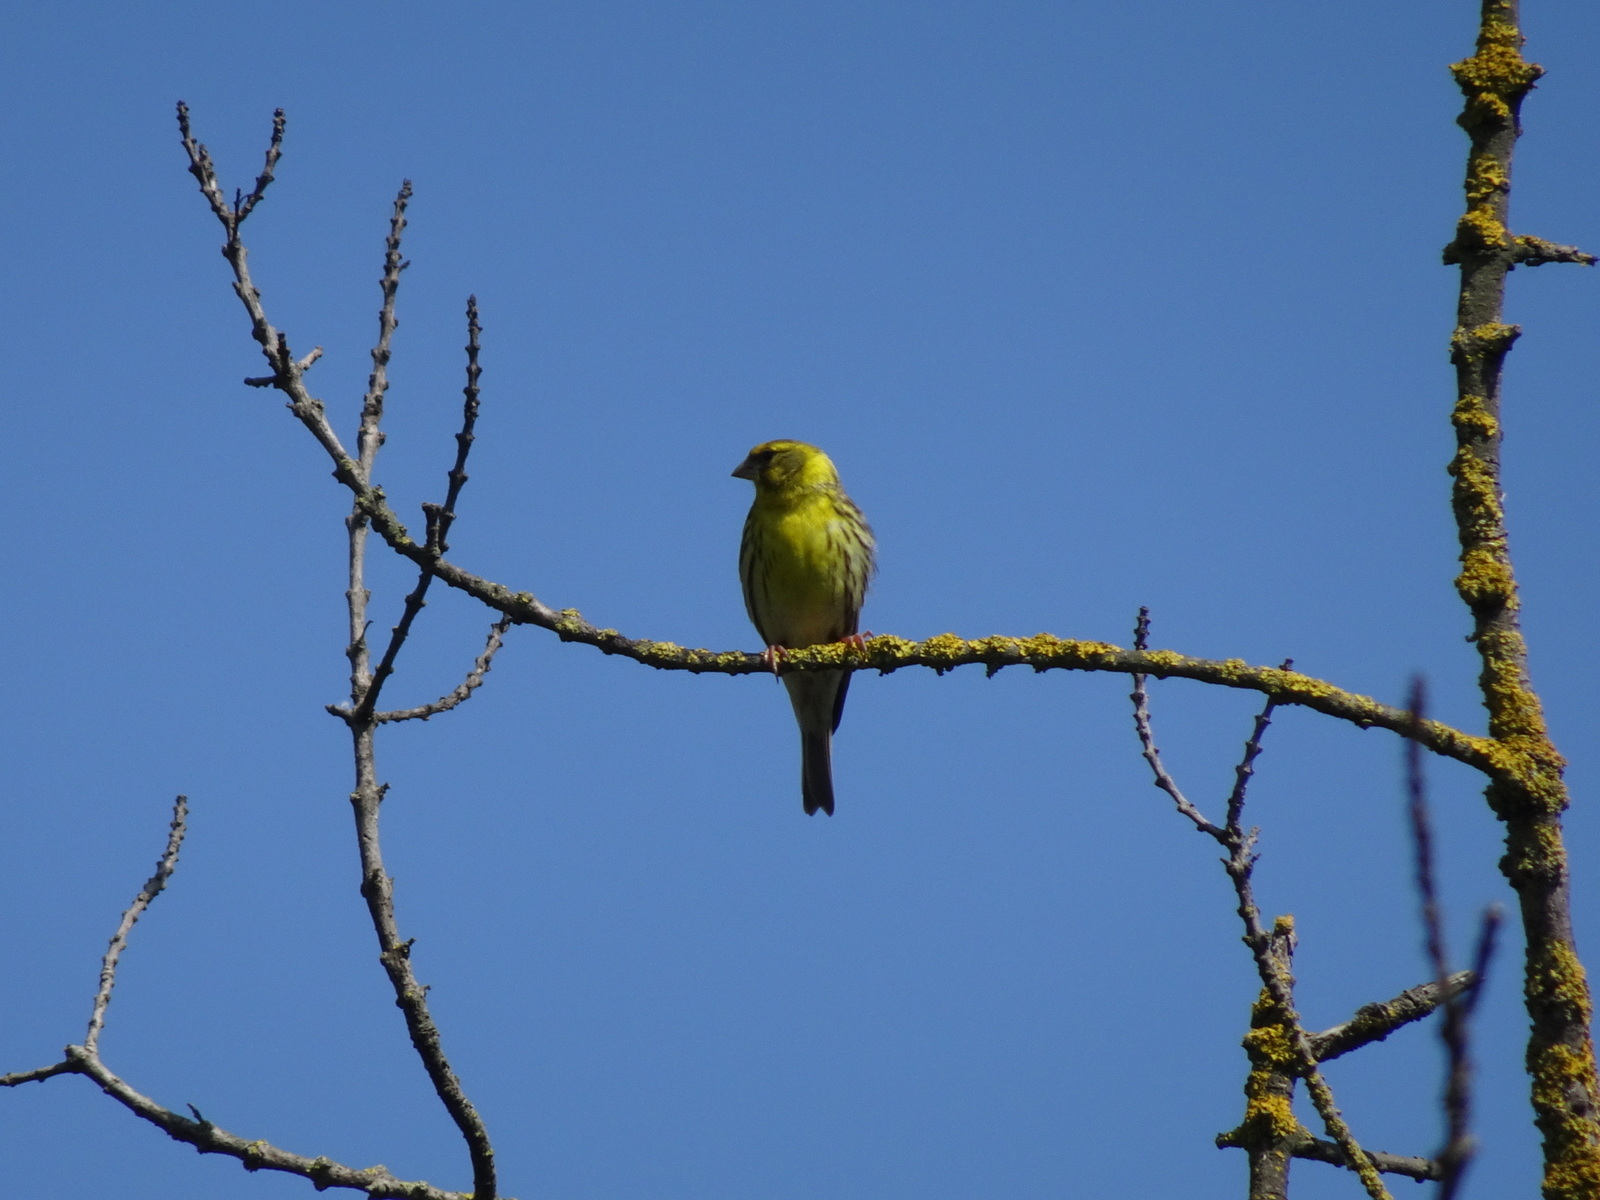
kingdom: Animalia
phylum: Chordata
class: Aves
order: Passeriformes
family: Fringillidae
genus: Serinus
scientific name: Serinus serinus
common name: European serin
